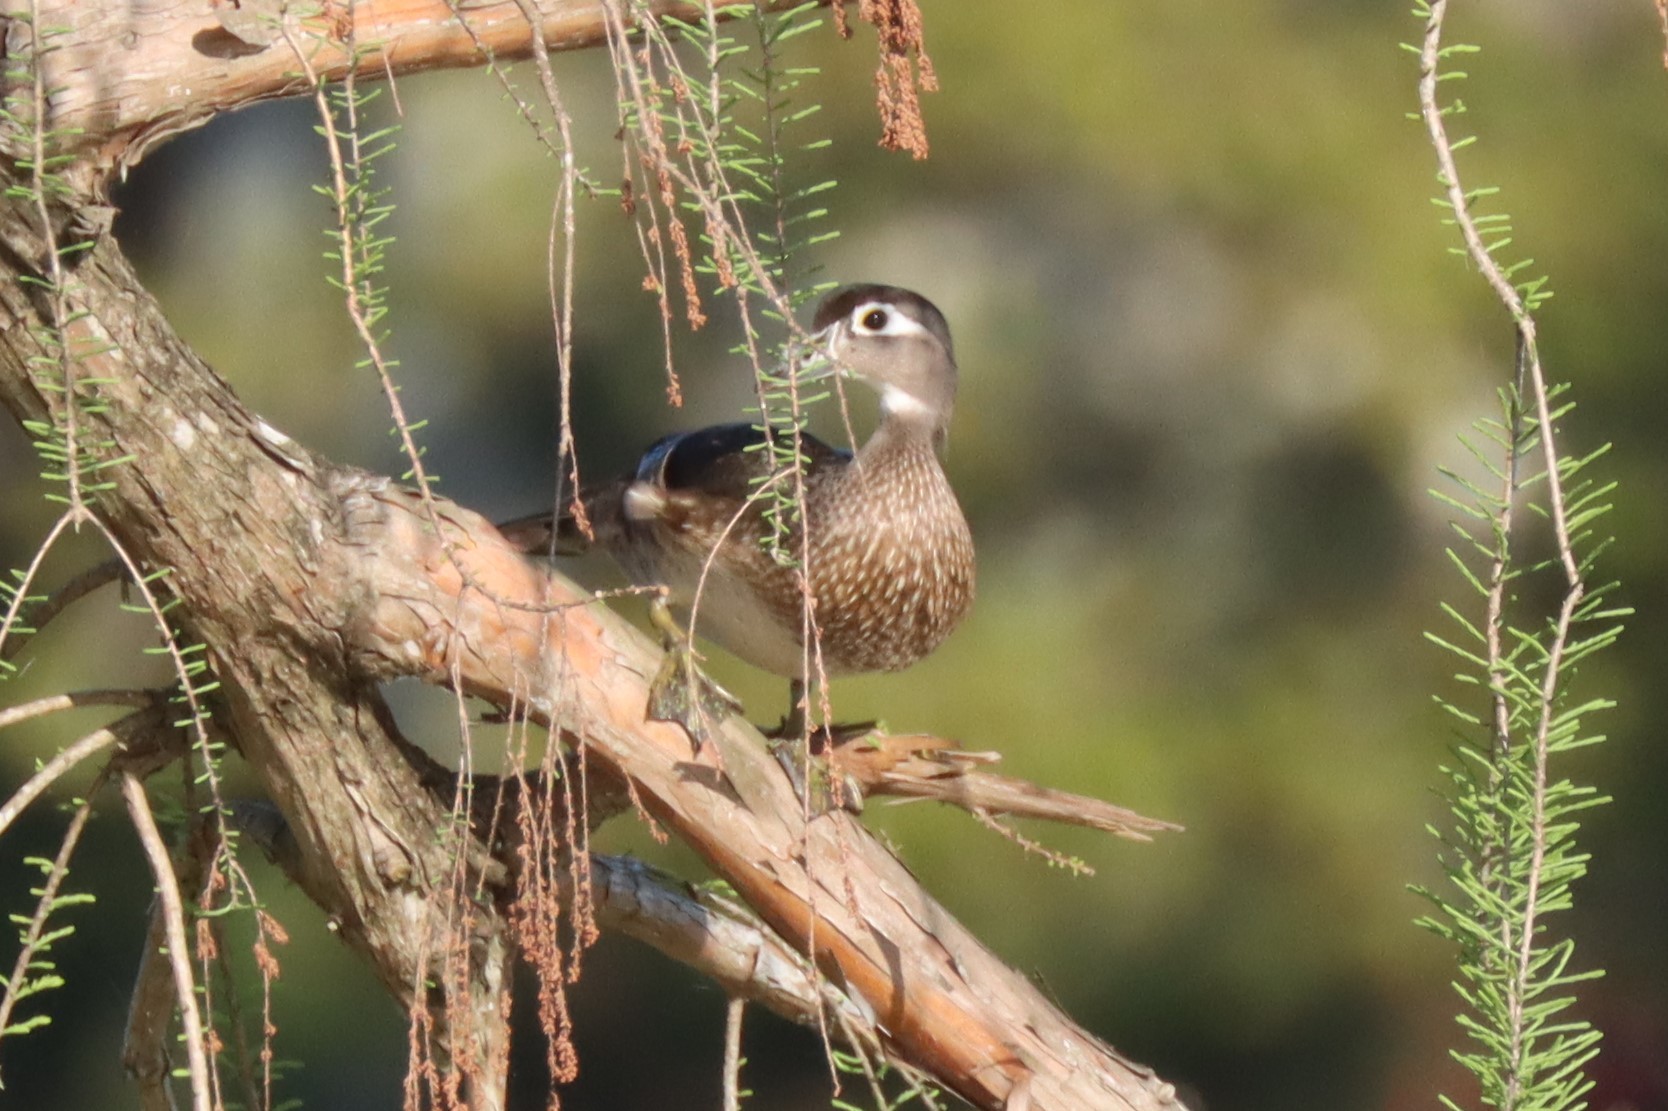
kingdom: Animalia
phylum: Chordata
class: Aves
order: Anseriformes
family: Anatidae
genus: Aix
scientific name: Aix sponsa
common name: Wood duck
